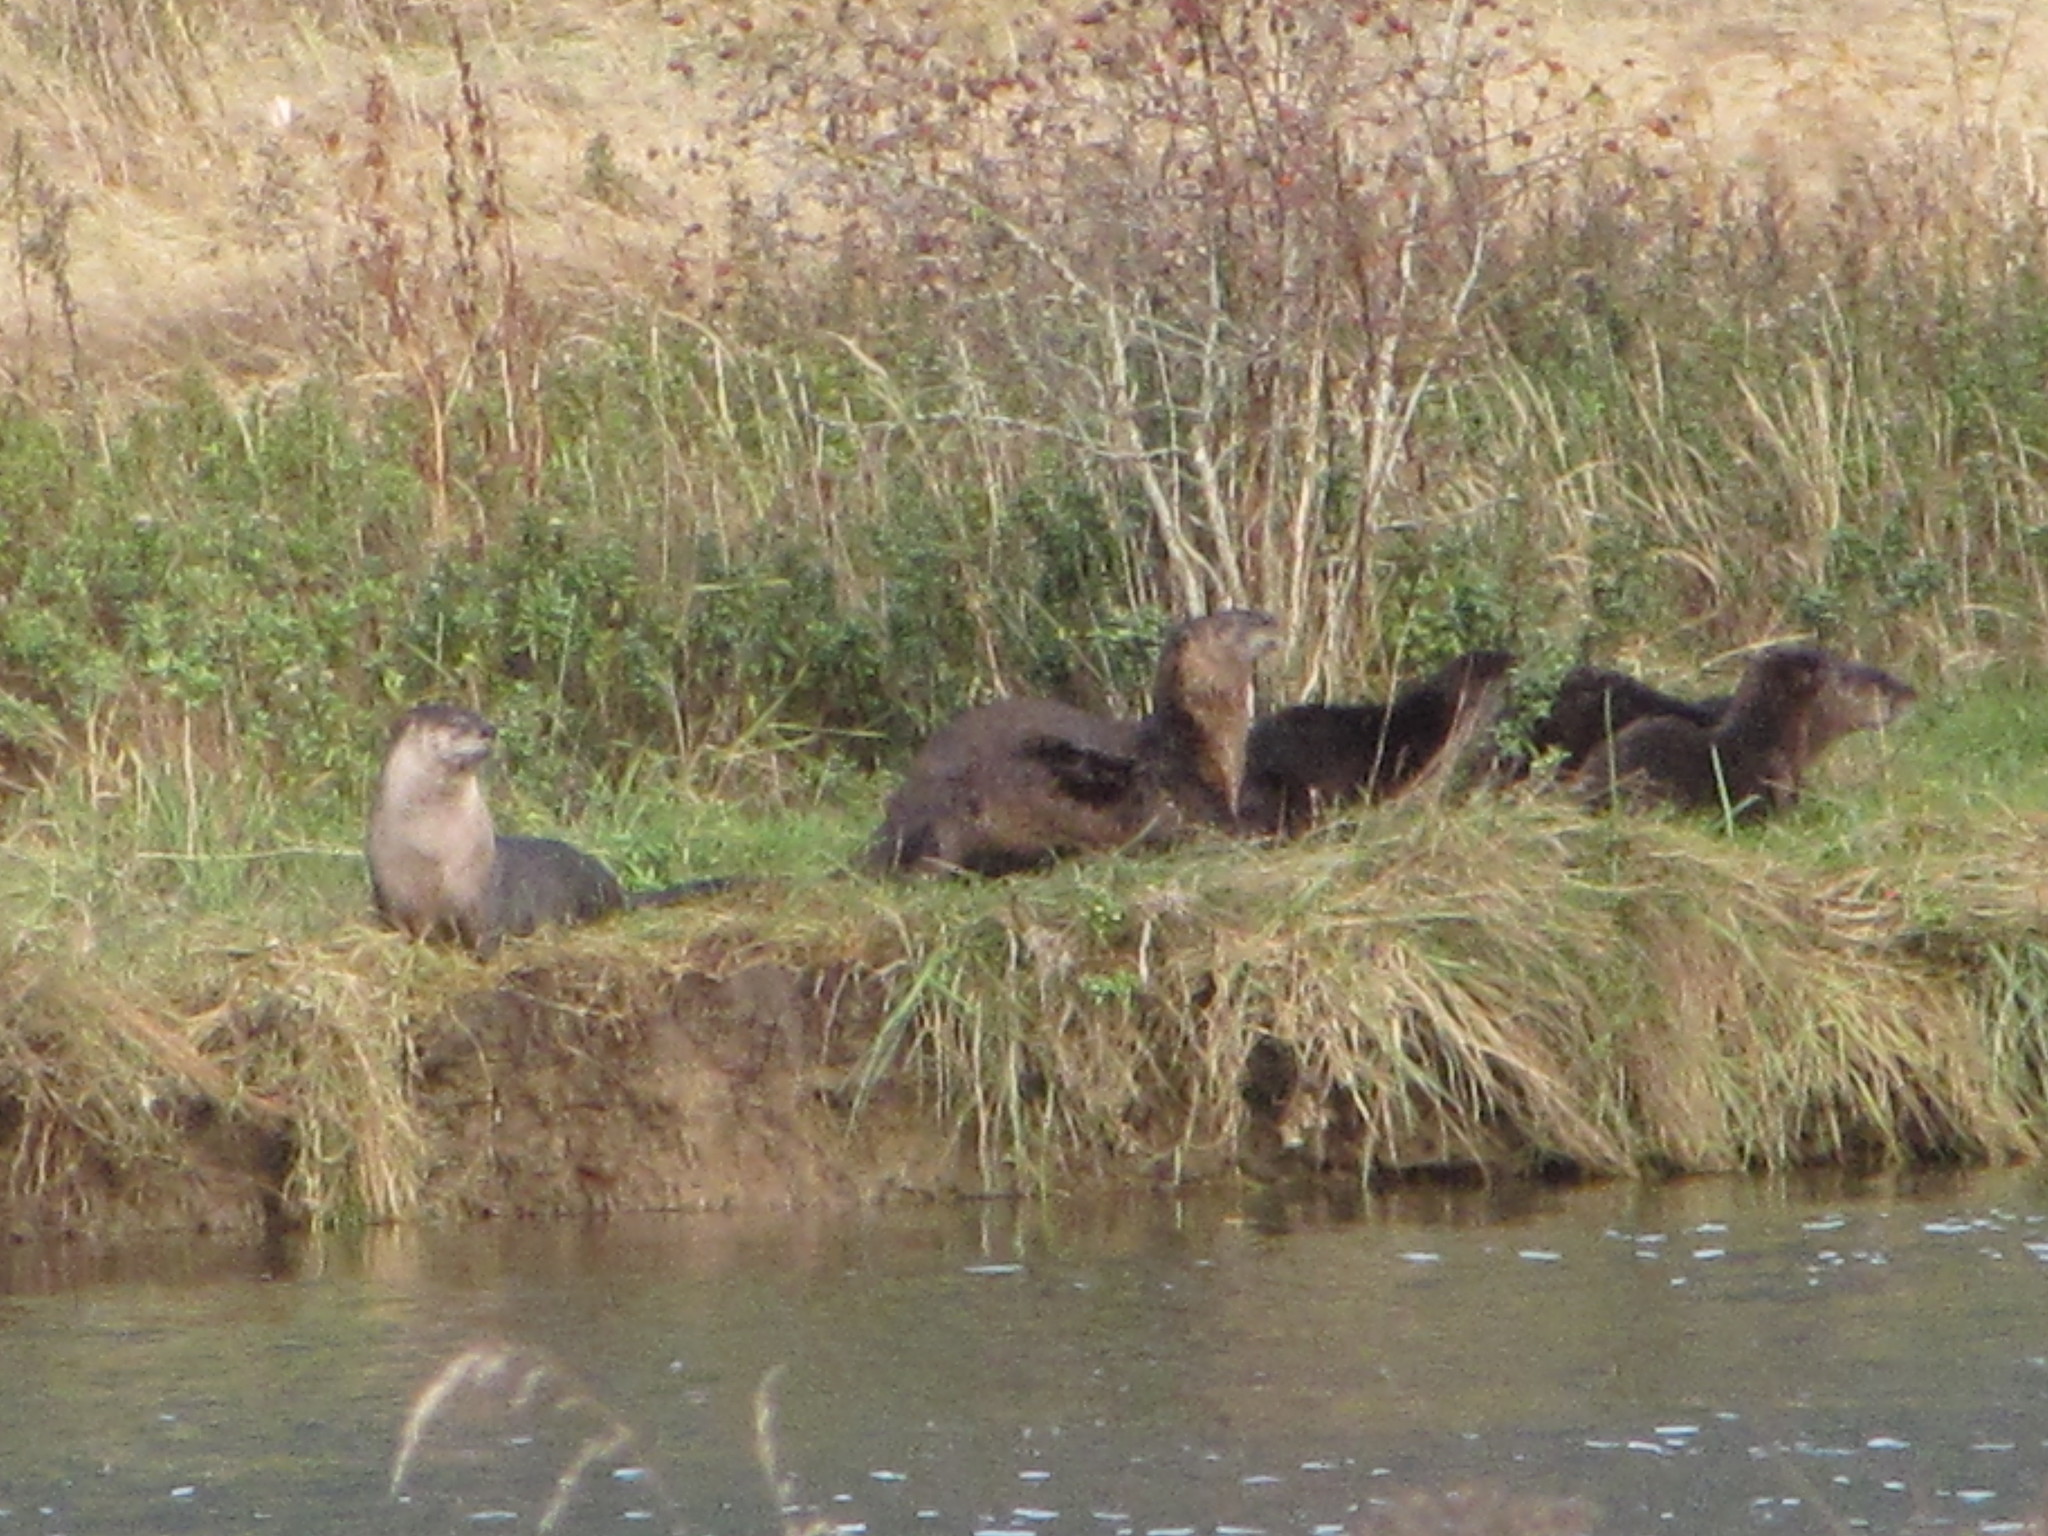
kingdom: Animalia
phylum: Chordata
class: Mammalia
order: Carnivora
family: Mustelidae
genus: Lontra
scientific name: Lontra canadensis
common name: North american river otter
